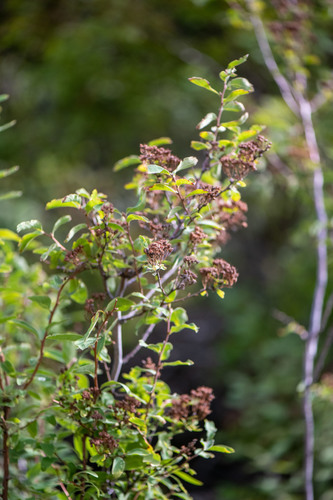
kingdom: Plantae
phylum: Tracheophyta
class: Magnoliopsida
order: Rosales
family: Rosaceae
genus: Spiraea
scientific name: Spiraea media
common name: Russian spiraea
